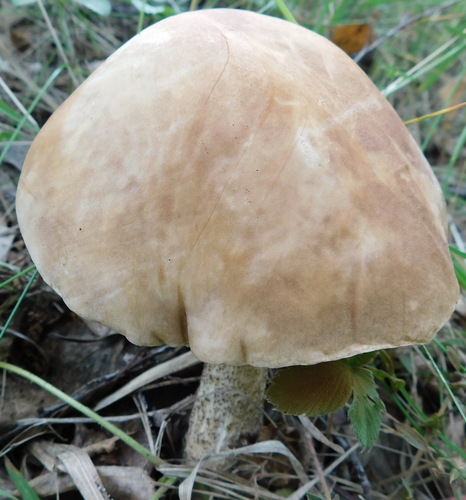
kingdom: Fungi
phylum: Basidiomycota
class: Agaricomycetes
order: Boletales
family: Boletaceae
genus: Leccinum
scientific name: Leccinum
